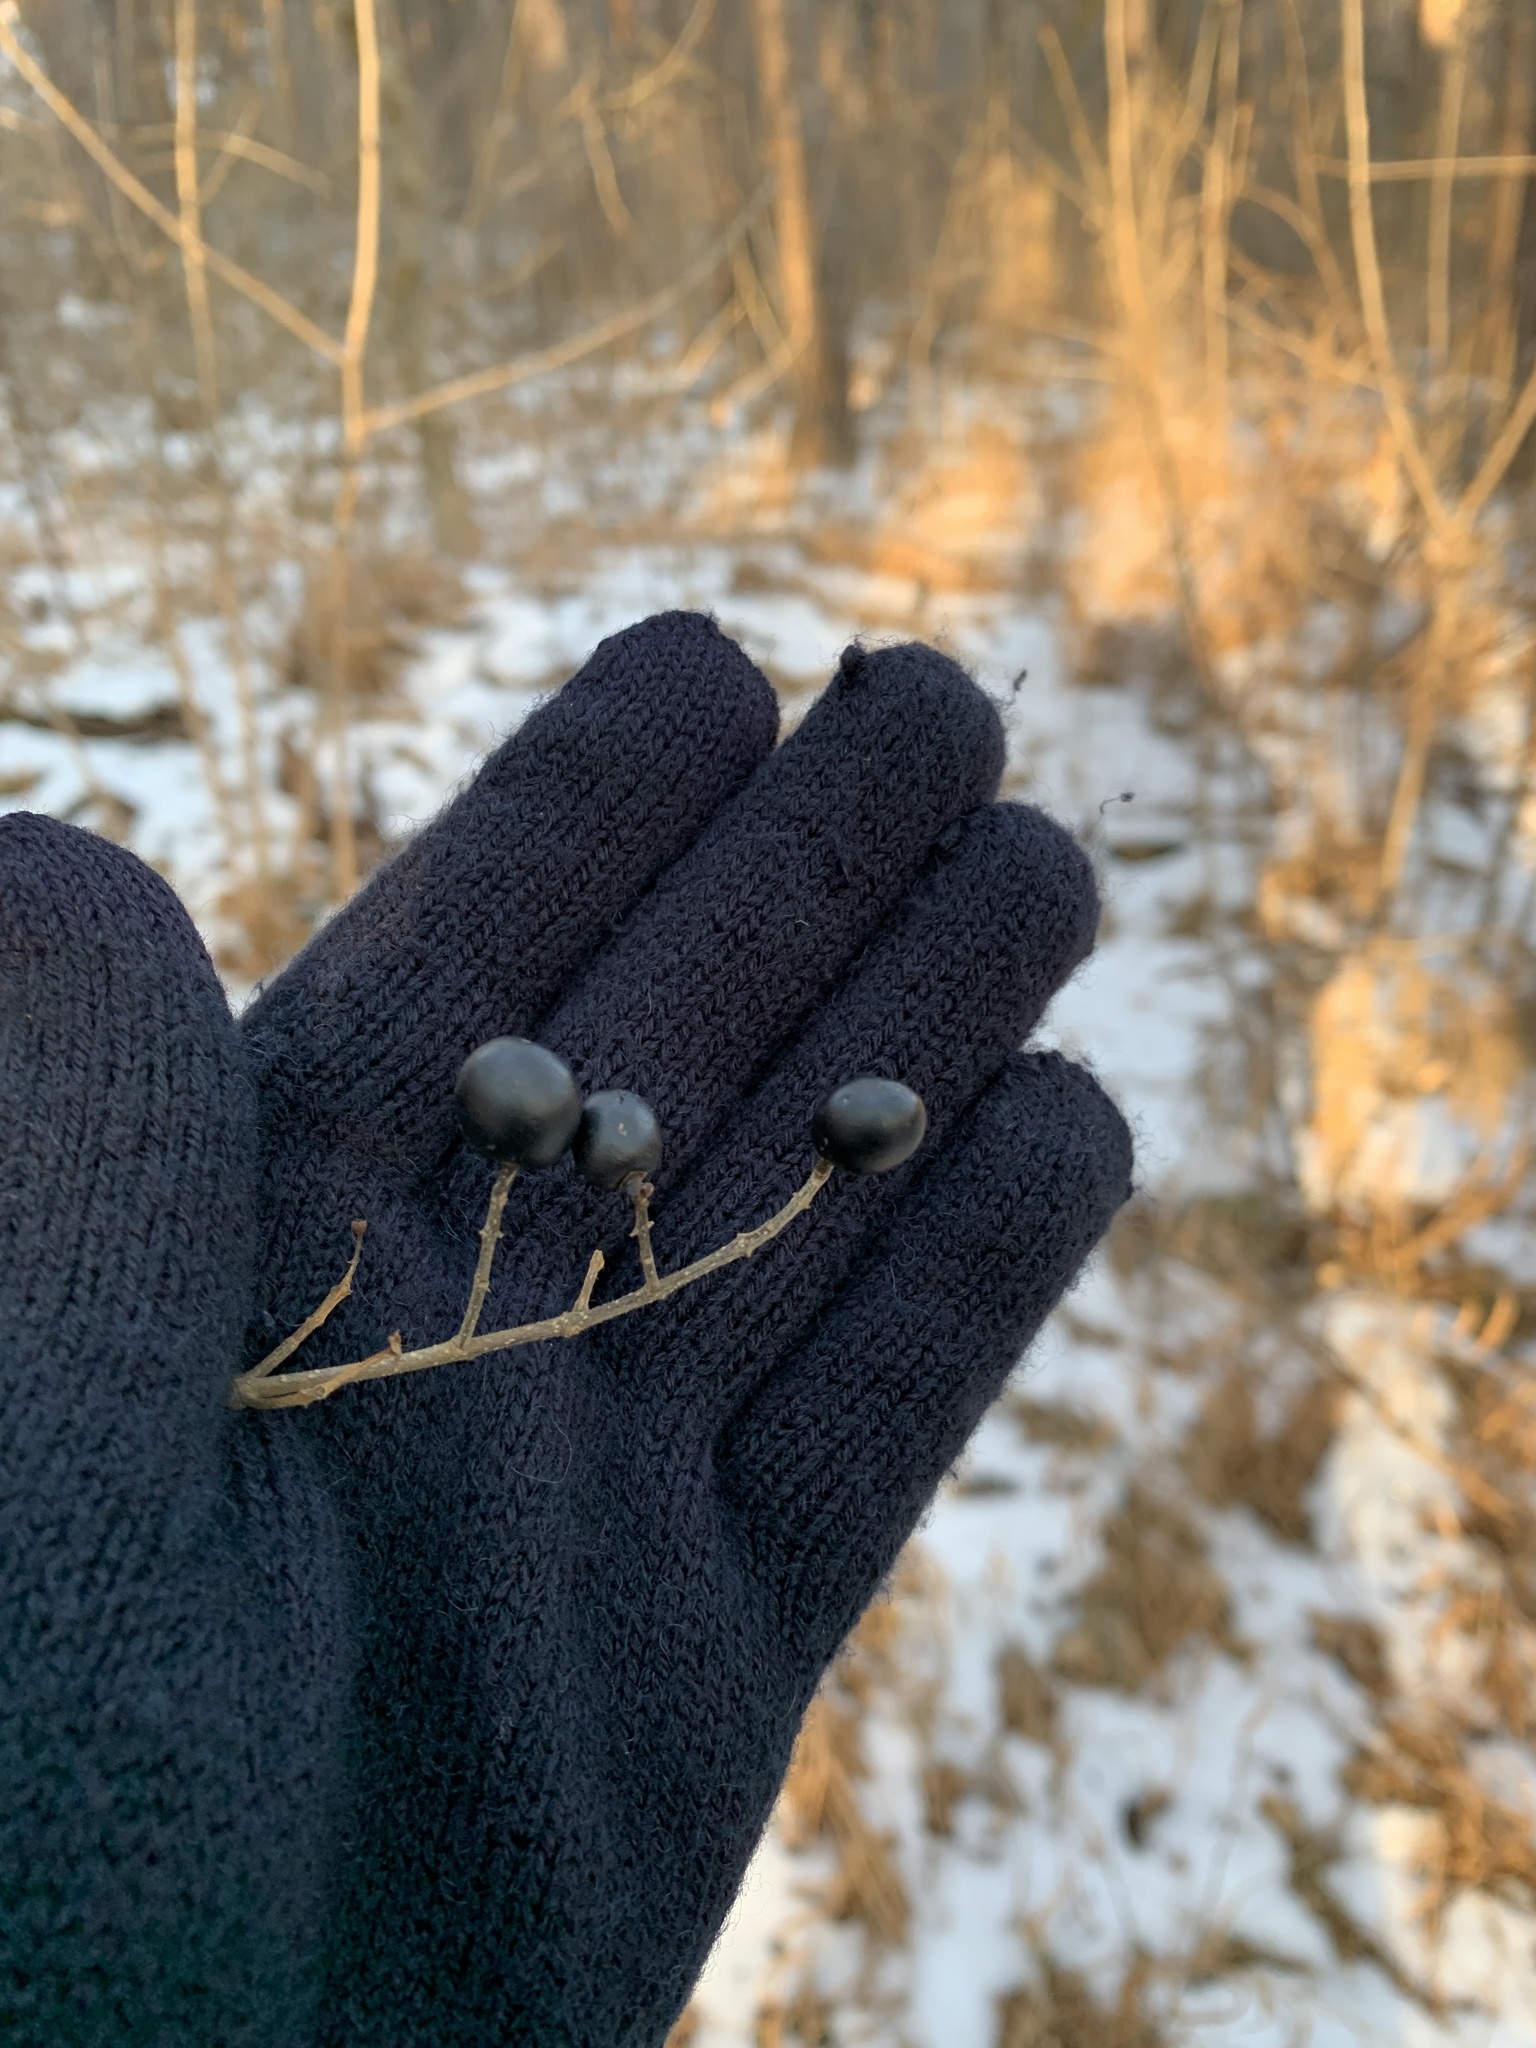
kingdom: Plantae
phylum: Tracheophyta
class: Magnoliopsida
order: Lamiales
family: Oleaceae
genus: Ligustrum
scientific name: Ligustrum vulgare
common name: Wild privet
